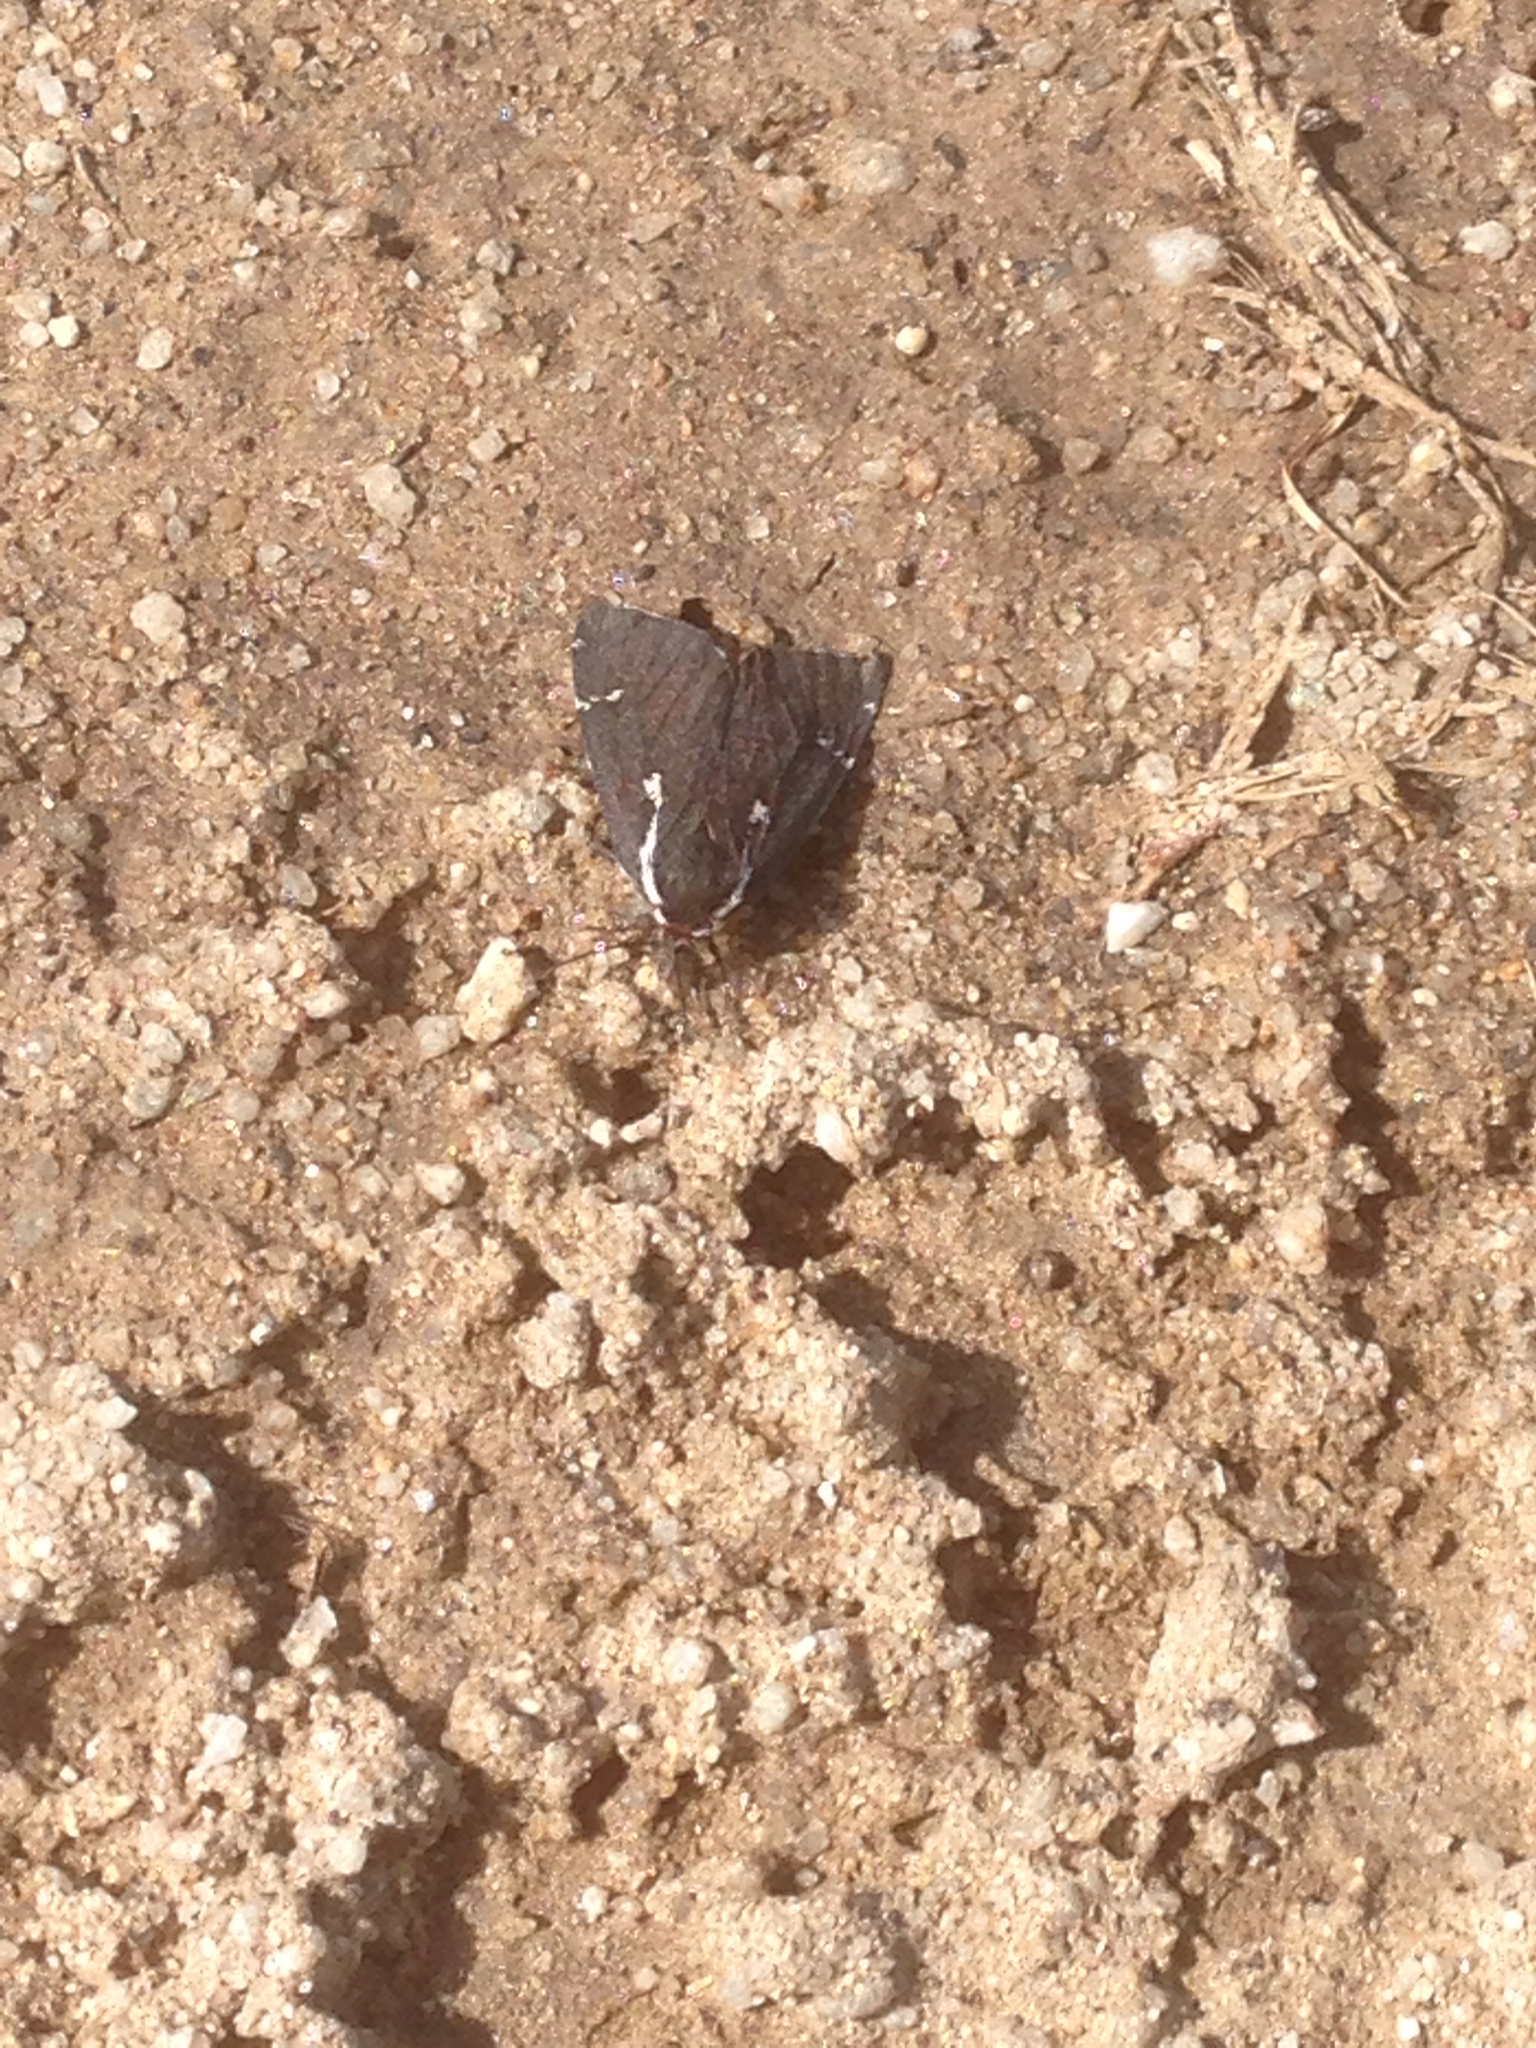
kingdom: Animalia
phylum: Arthropoda
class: Insecta
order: Lepidoptera
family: Erebidae
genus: Leptarctia
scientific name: Leptarctia californiae
